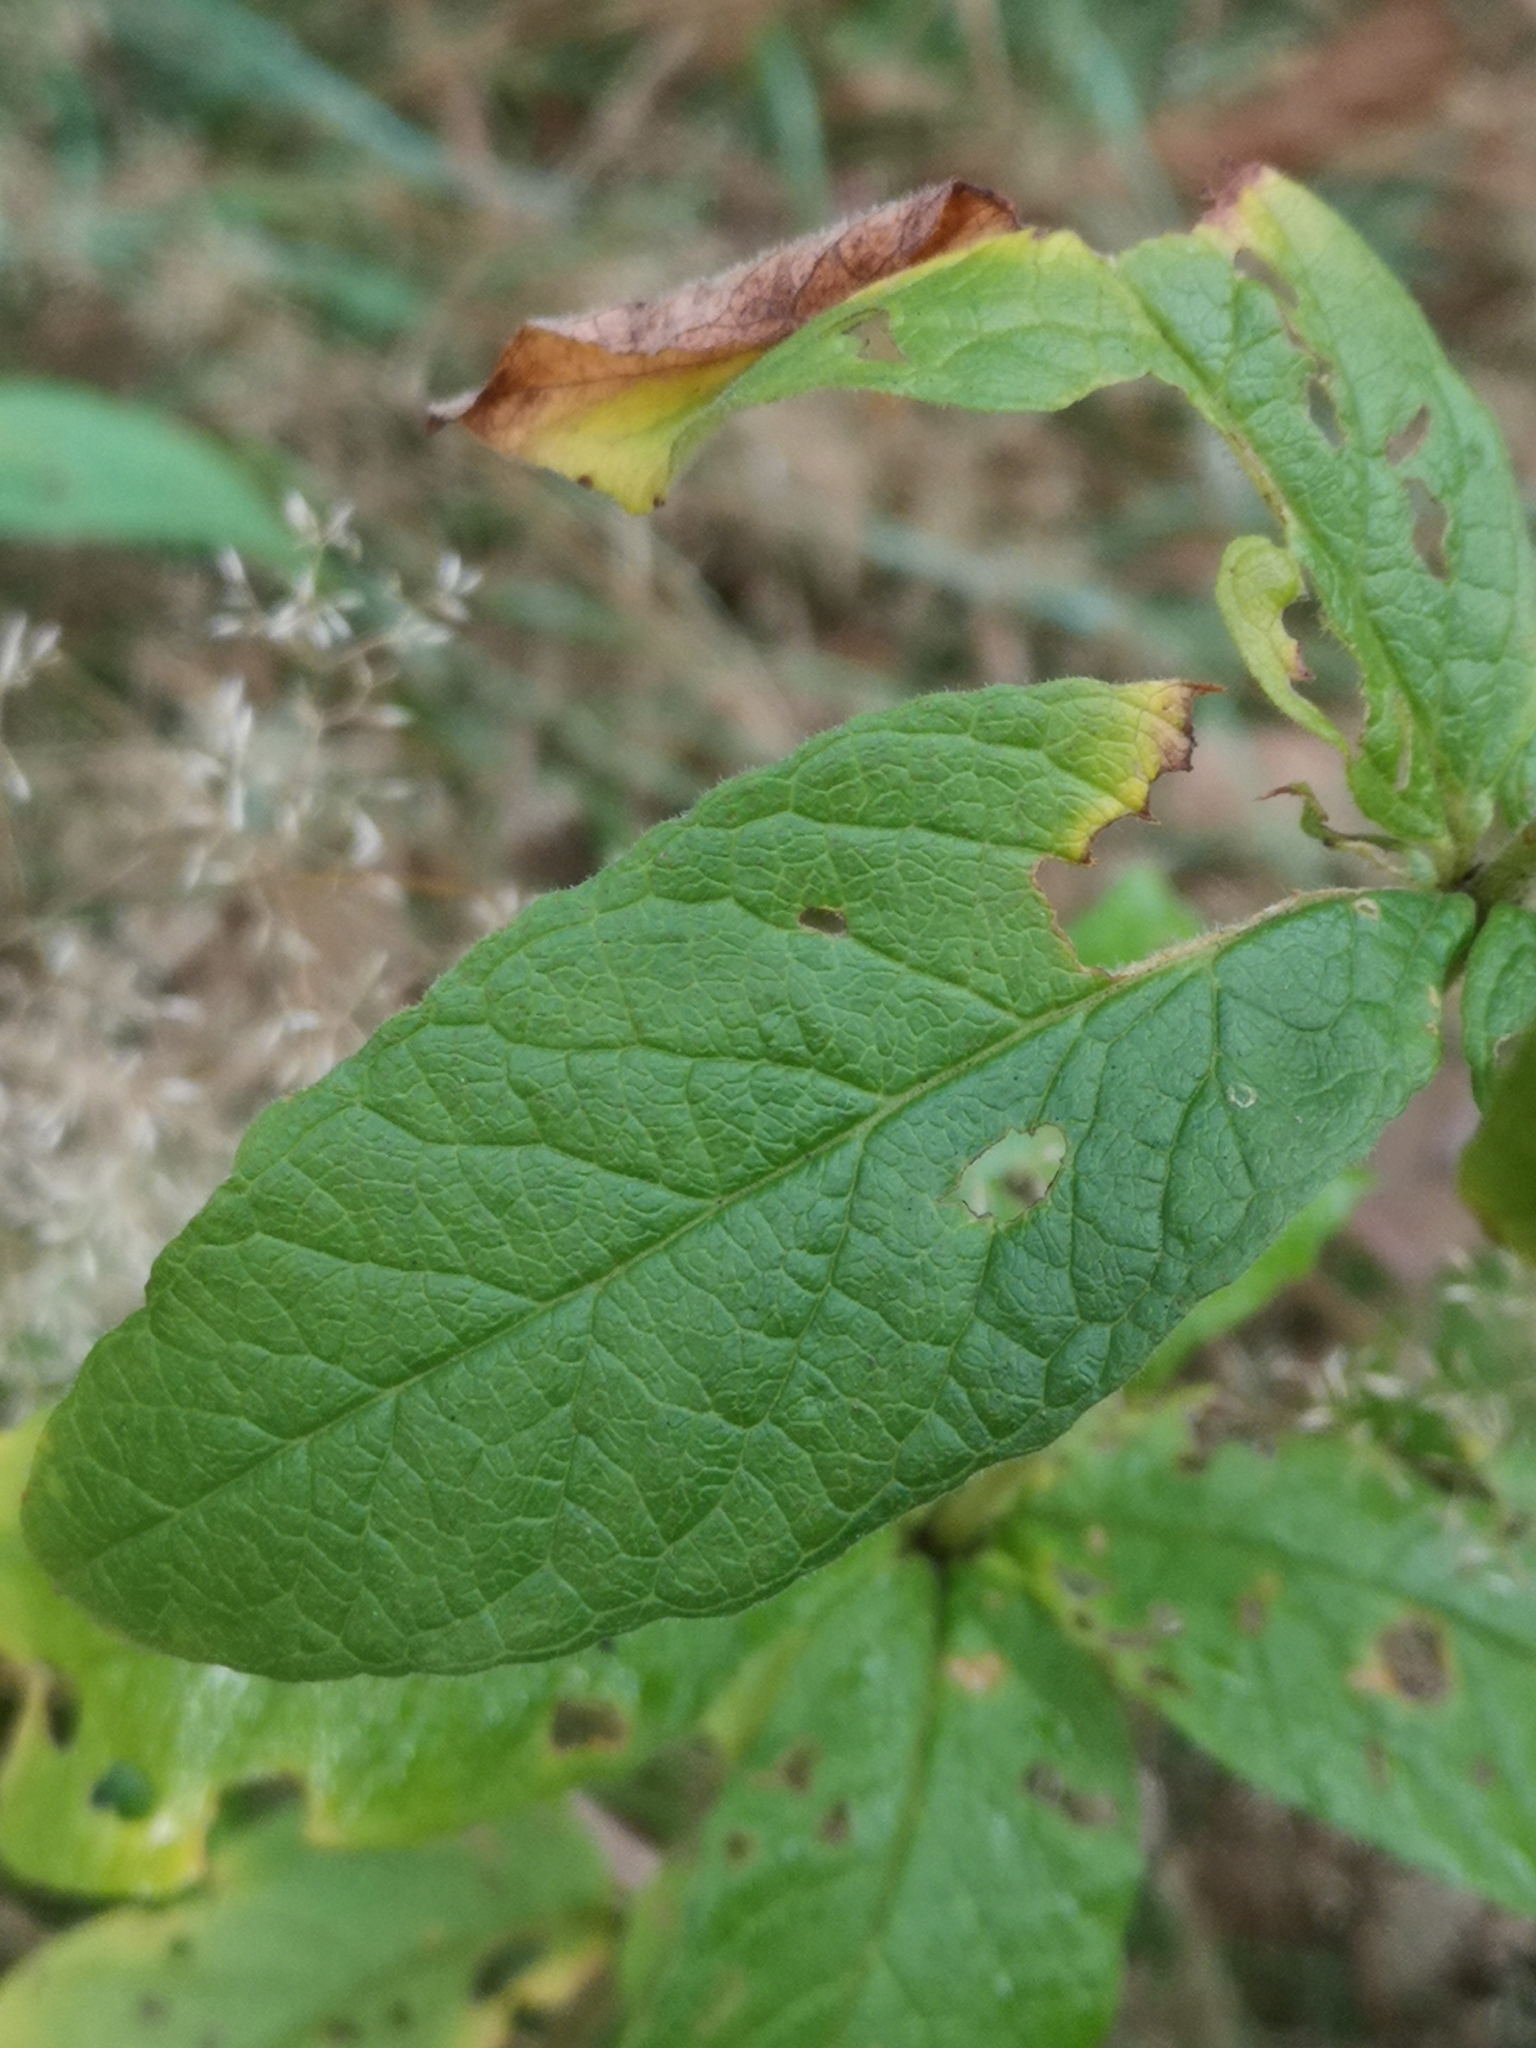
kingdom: Plantae
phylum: Tracheophyta
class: Magnoliopsida
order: Ericales
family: Primulaceae
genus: Lysimachia
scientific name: Lysimachia vulgaris
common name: Yellow loosestrife
